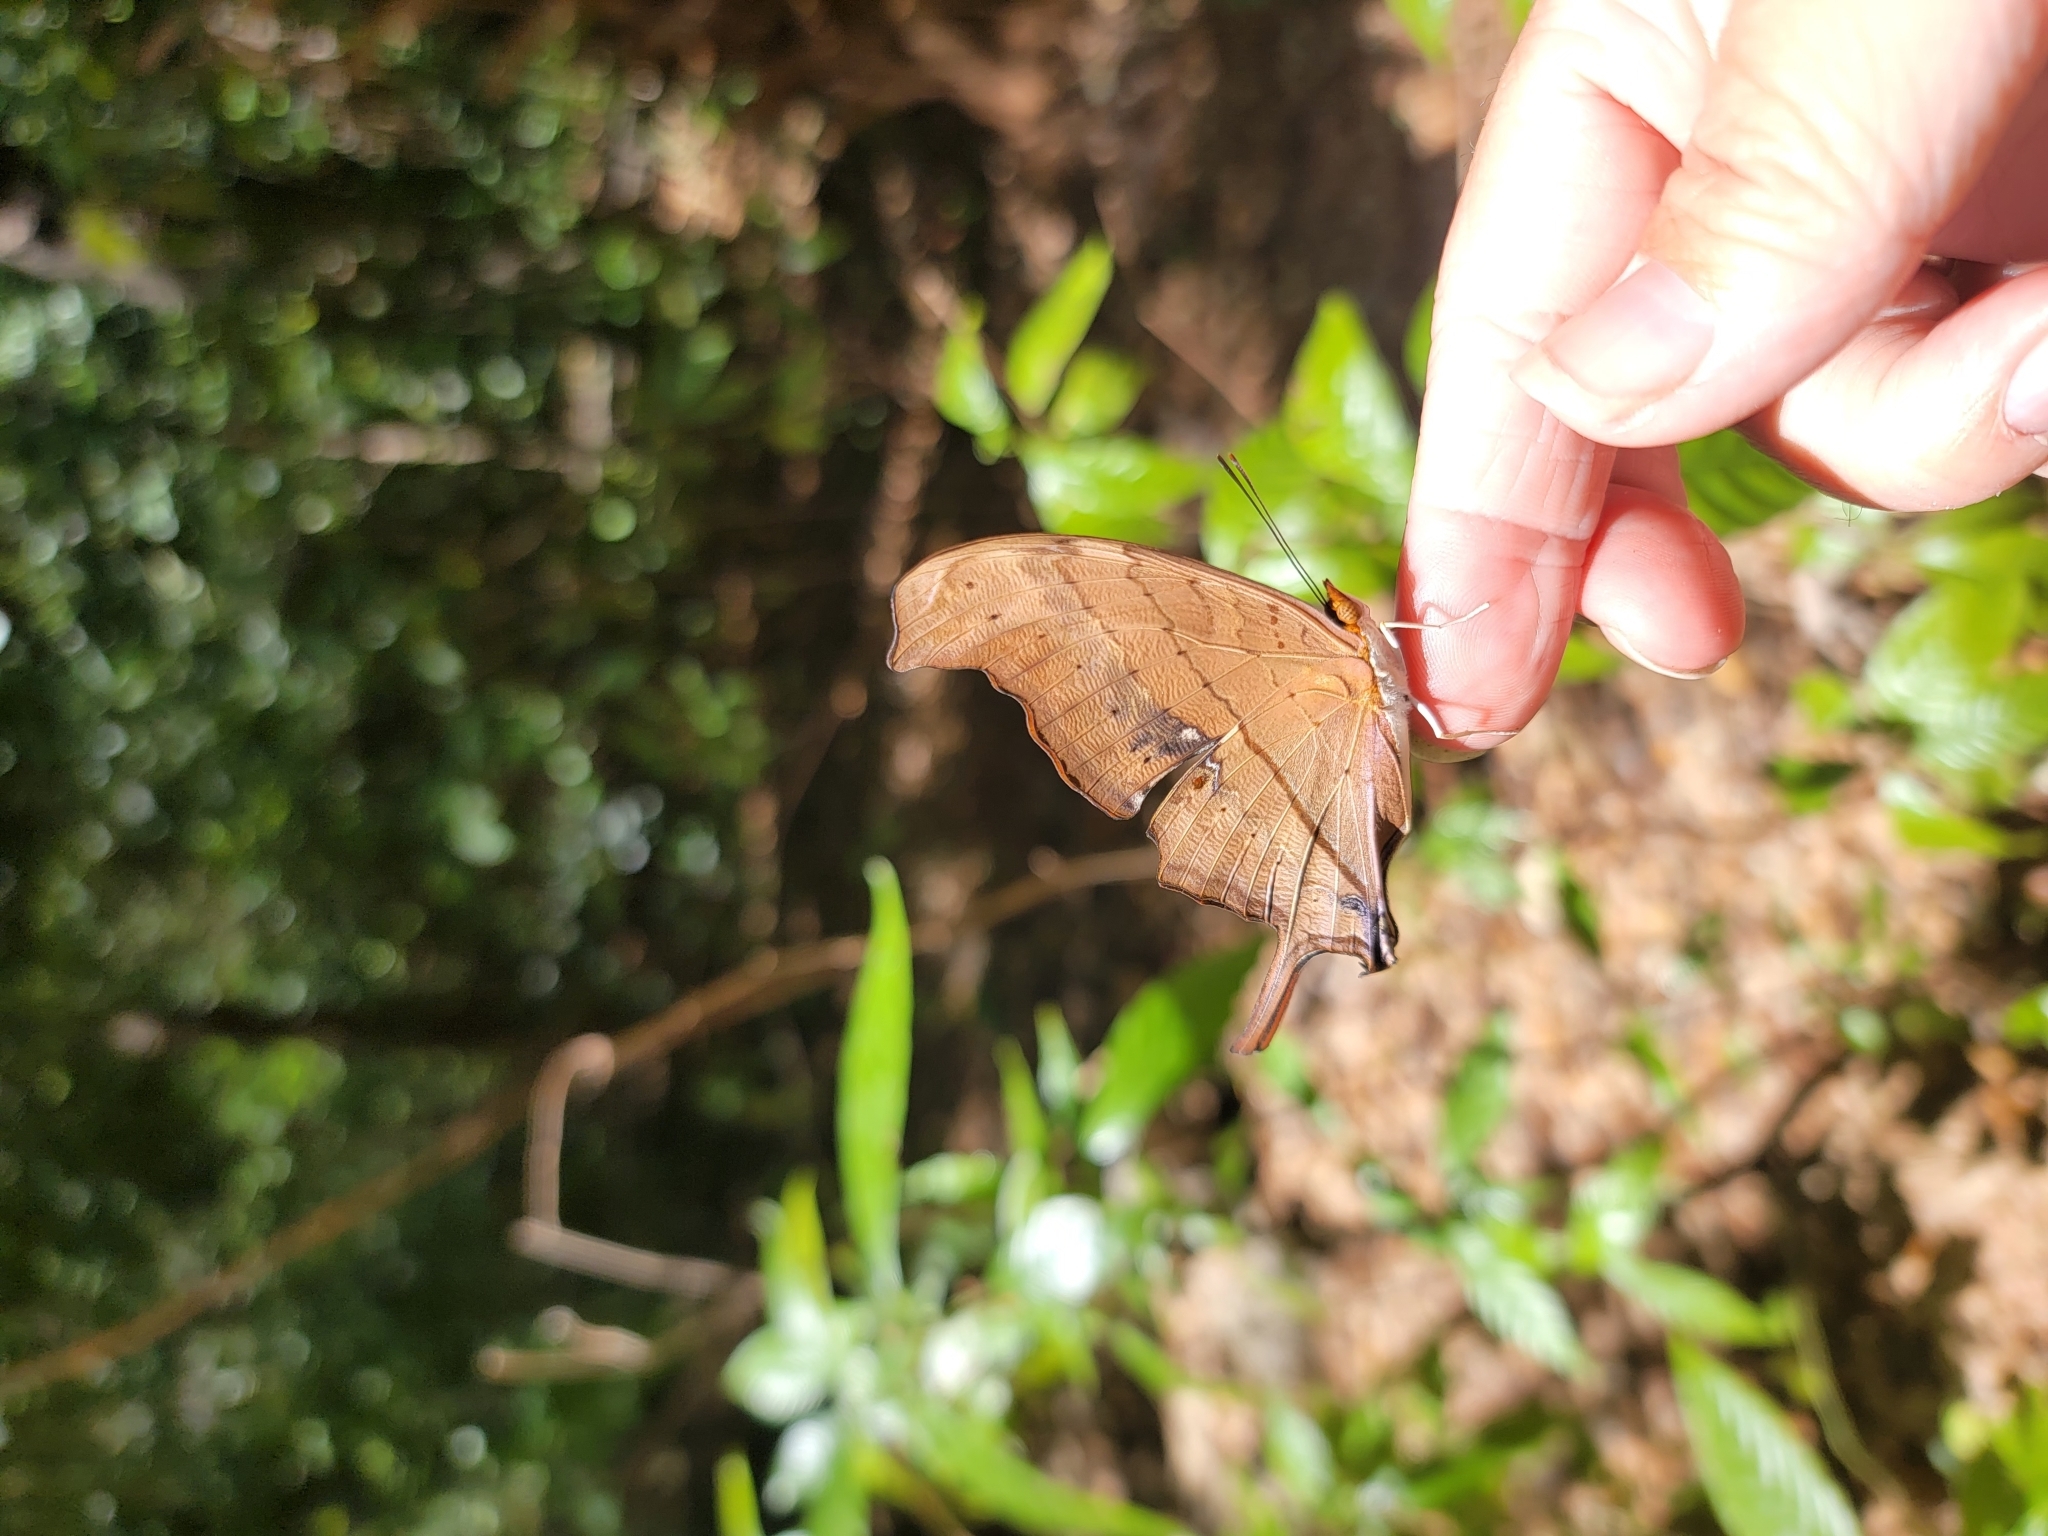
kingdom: Animalia
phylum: Arthropoda
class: Insecta
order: Lepidoptera
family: Nymphalidae
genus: Marpesia
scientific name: Marpesia petreus
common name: Red dagger wing
